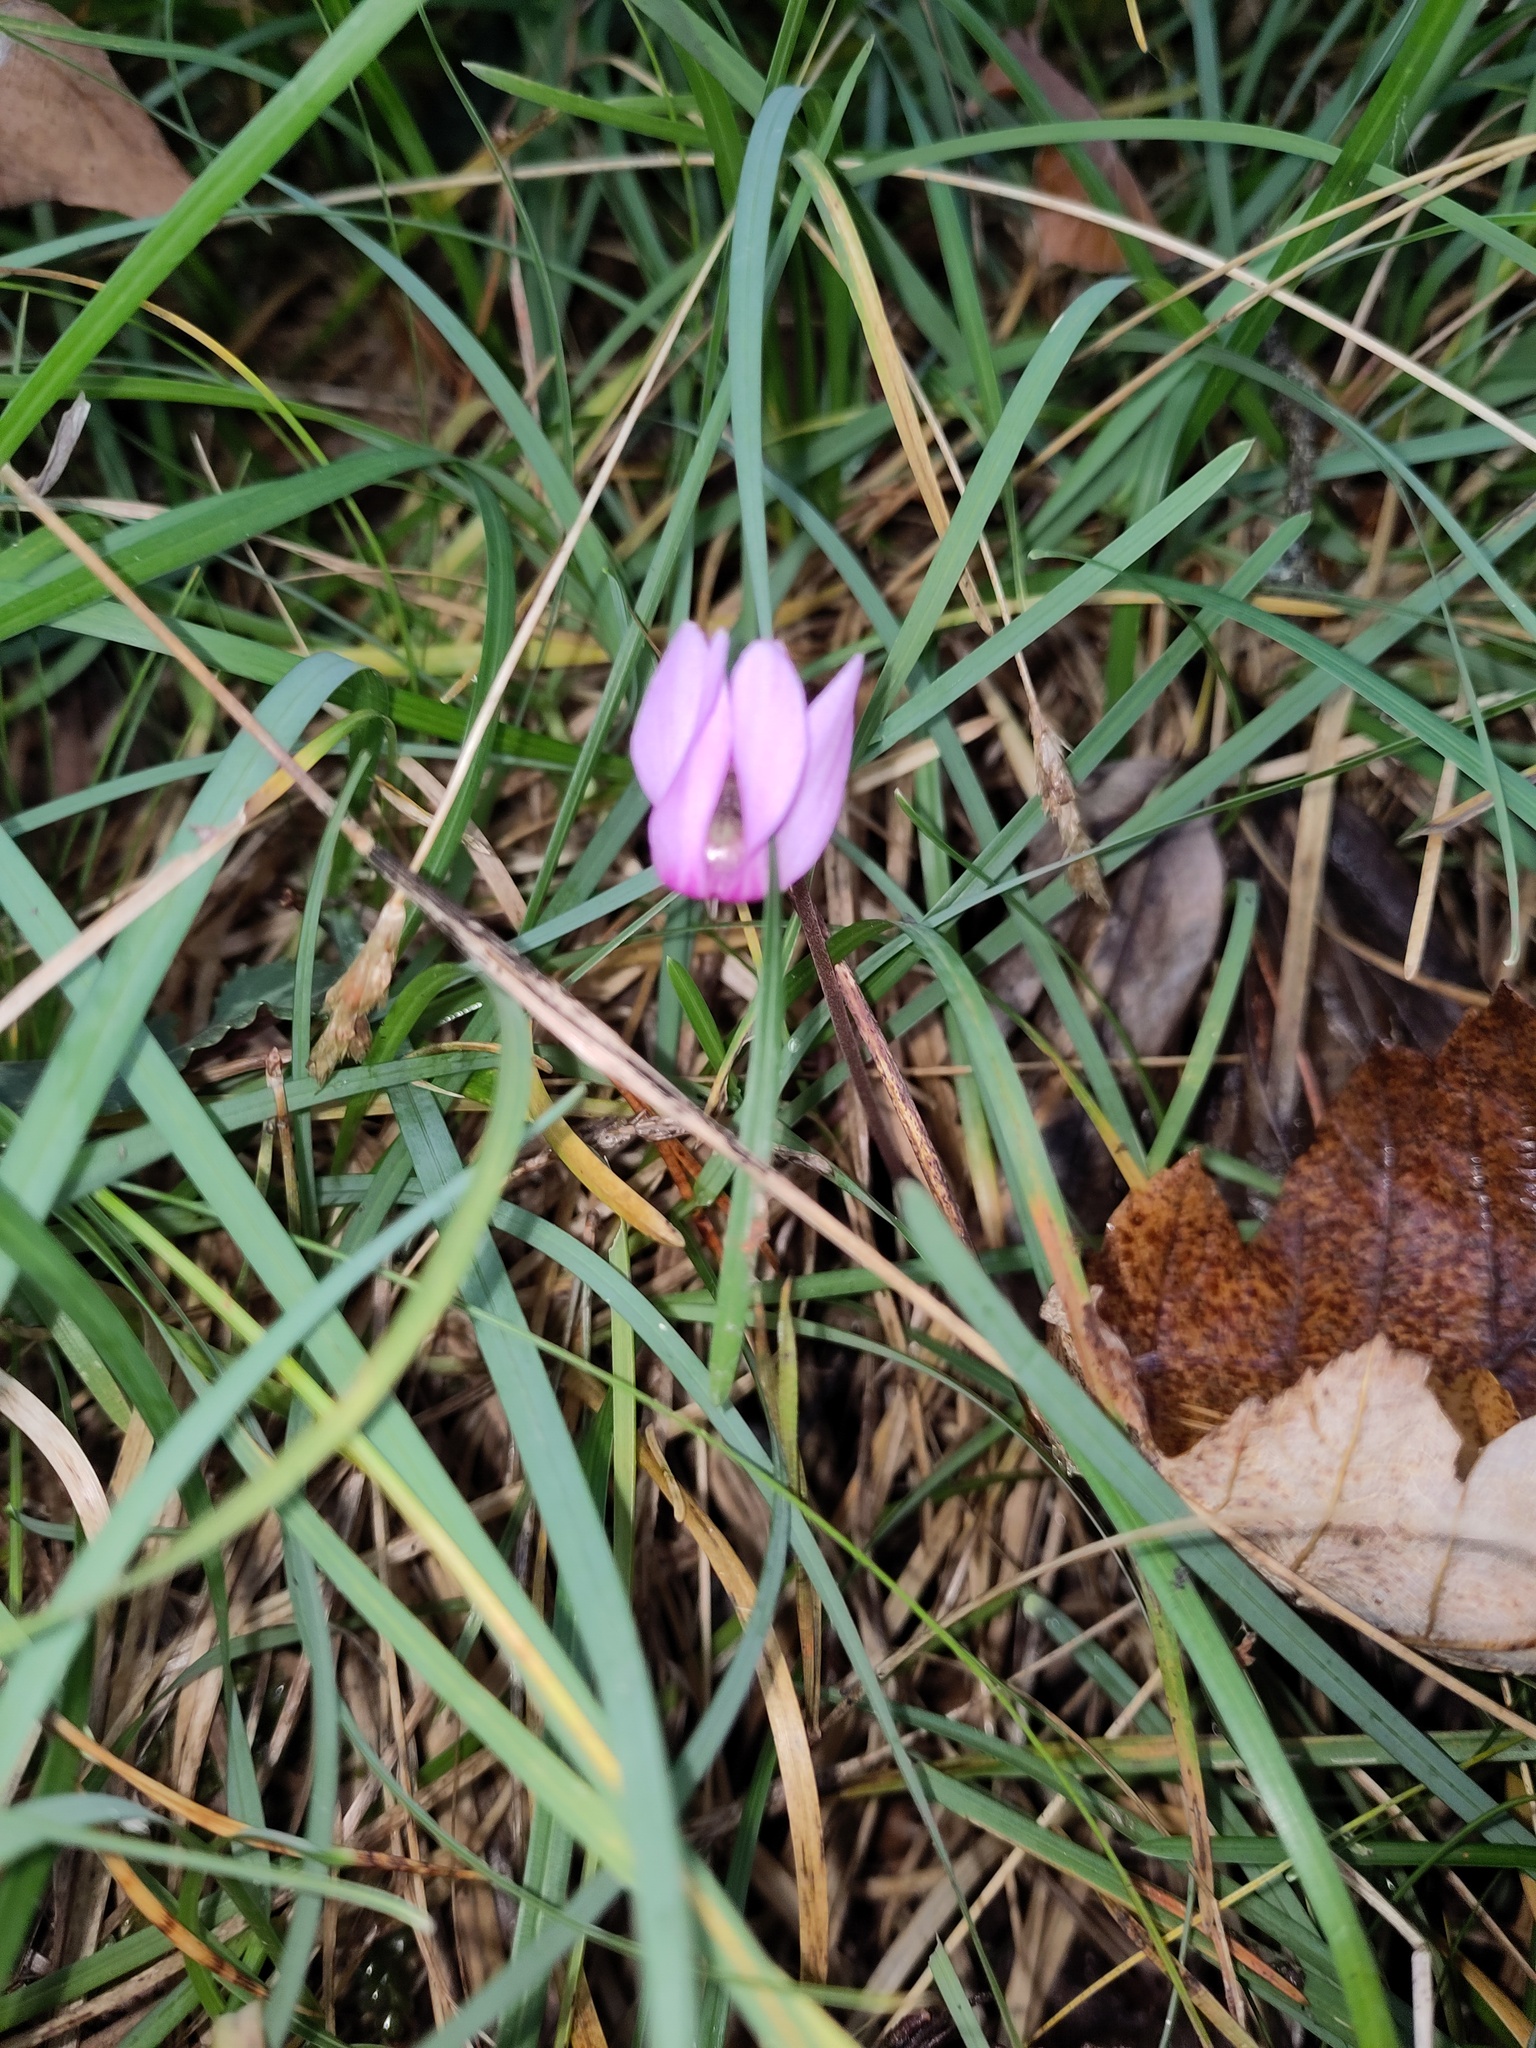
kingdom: Plantae
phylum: Tracheophyta
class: Magnoliopsida
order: Ericales
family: Primulaceae
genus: Cyclamen
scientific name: Cyclamen purpurascens
